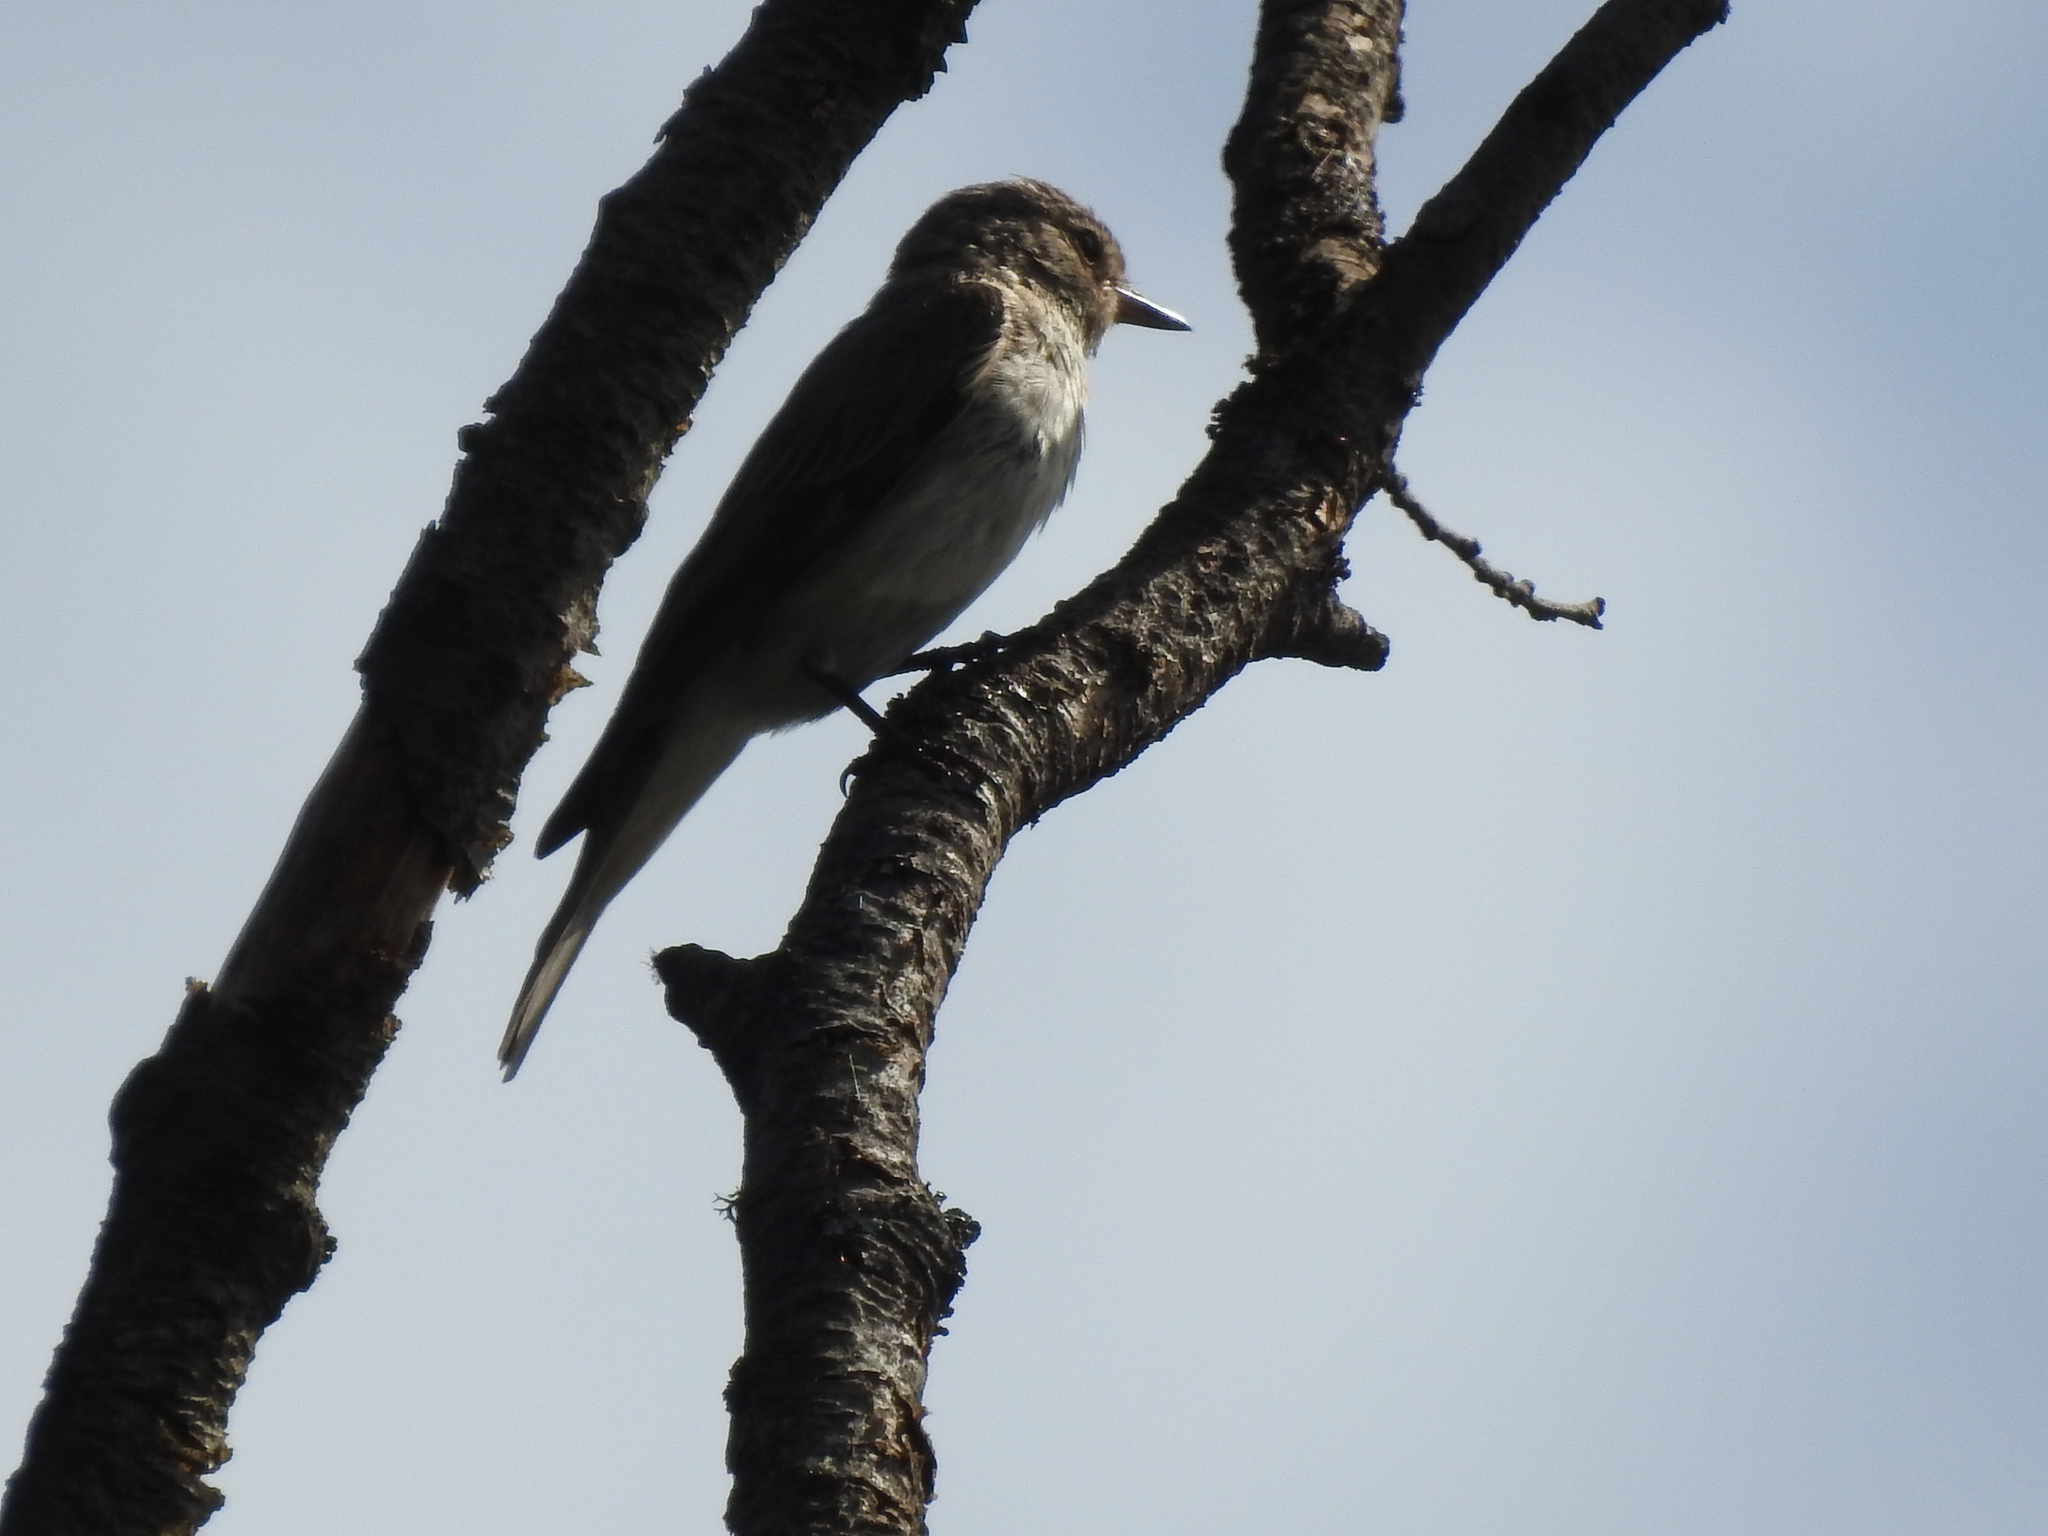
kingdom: Animalia
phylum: Chordata
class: Aves
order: Passeriformes
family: Muscicapidae
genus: Muscicapa
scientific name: Muscicapa striata
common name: Spotted flycatcher
